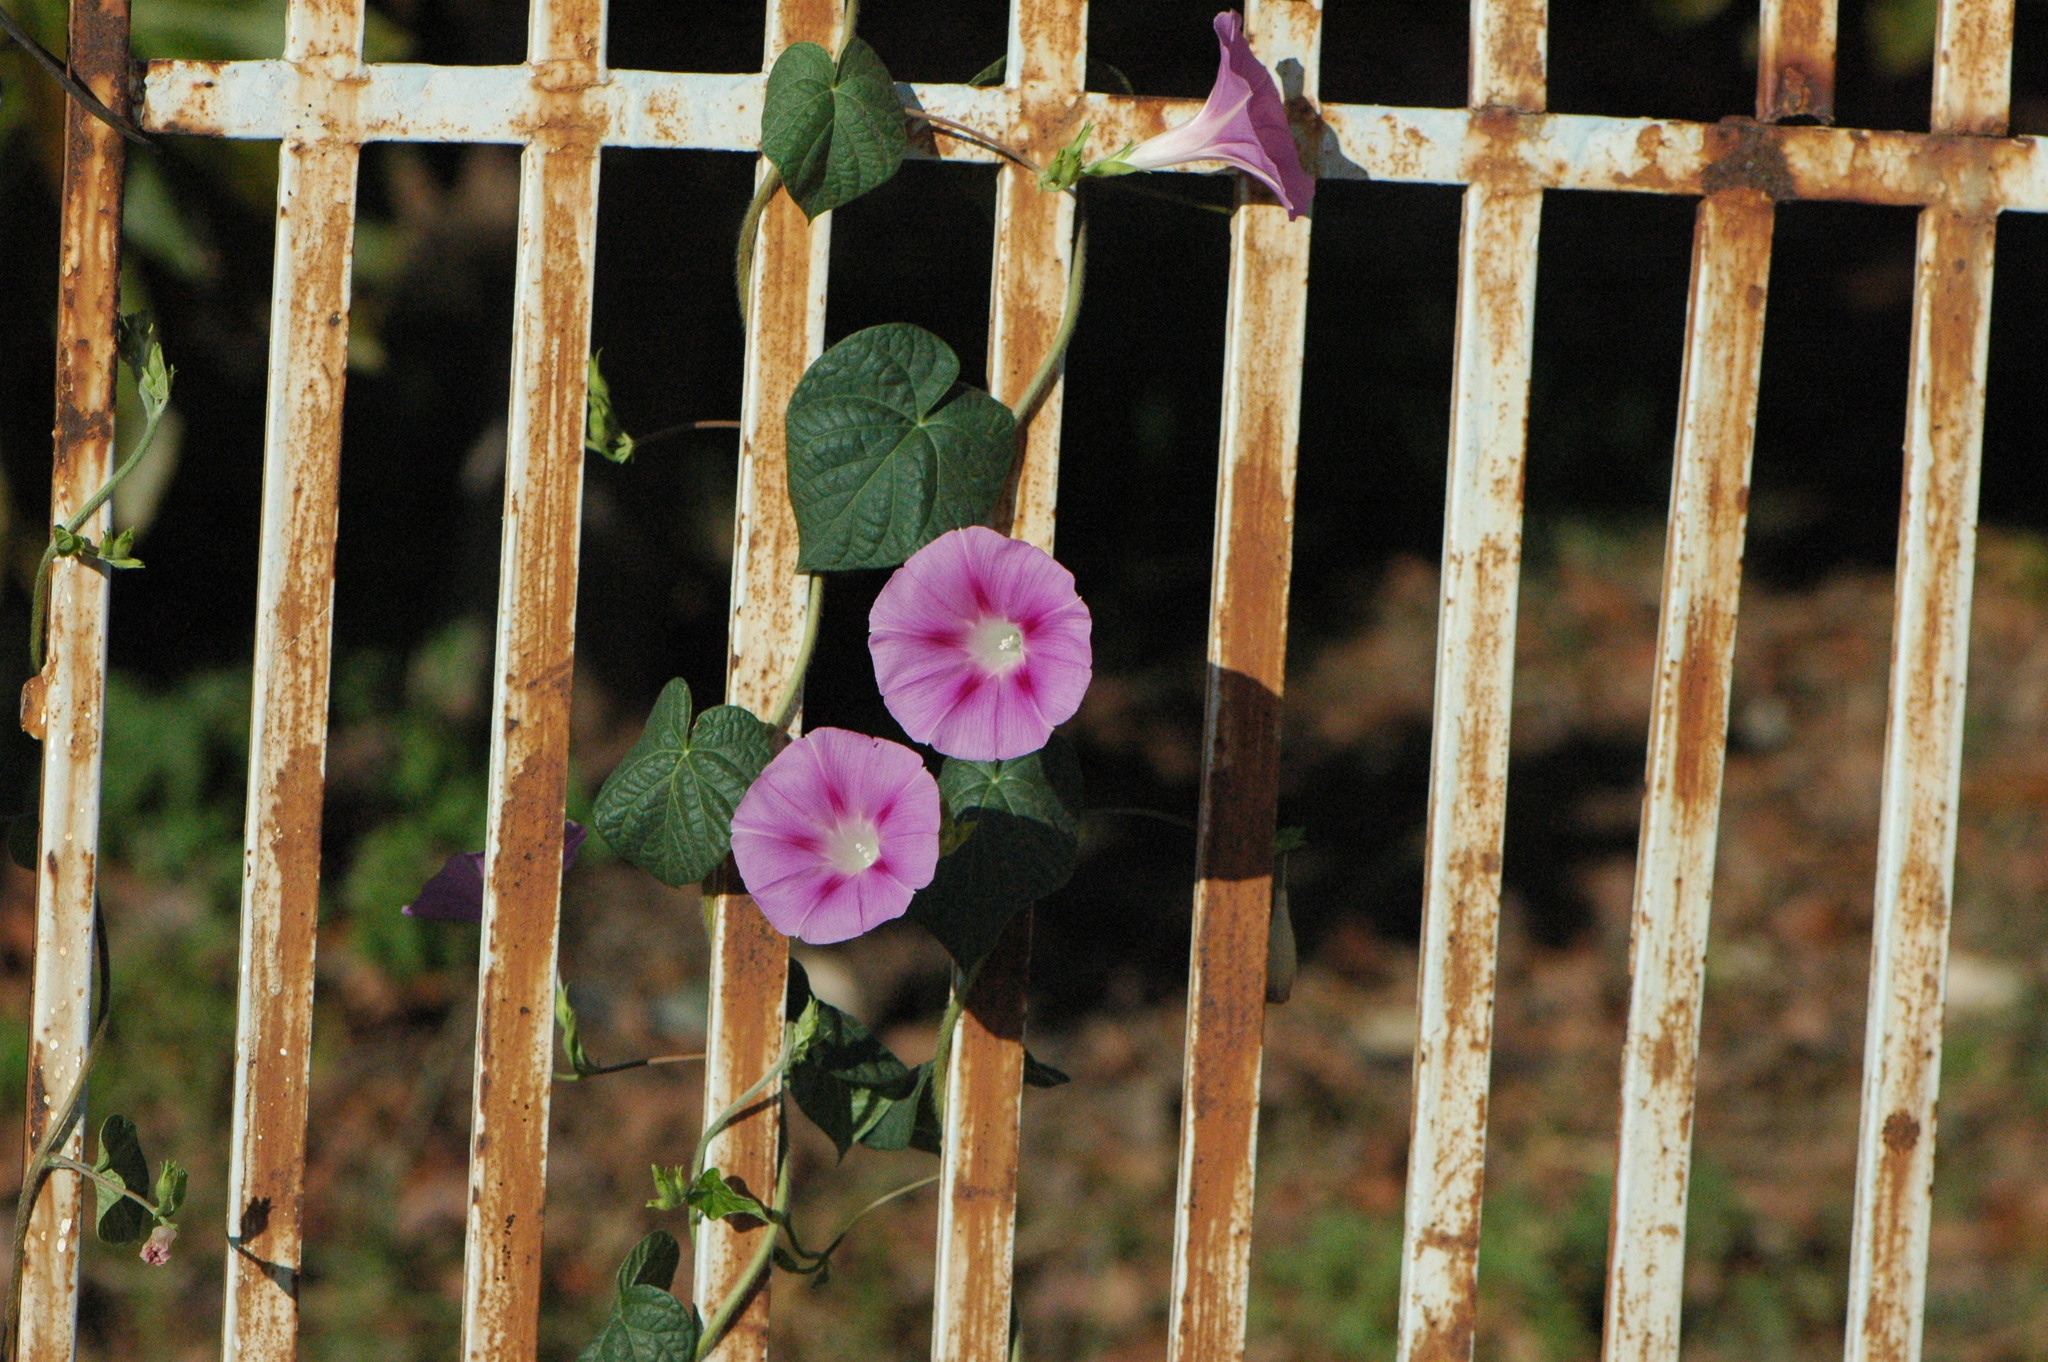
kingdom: Plantae
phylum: Tracheophyta
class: Magnoliopsida
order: Solanales
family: Convolvulaceae
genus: Ipomoea
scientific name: Ipomoea purpurea
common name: Common morning-glory
